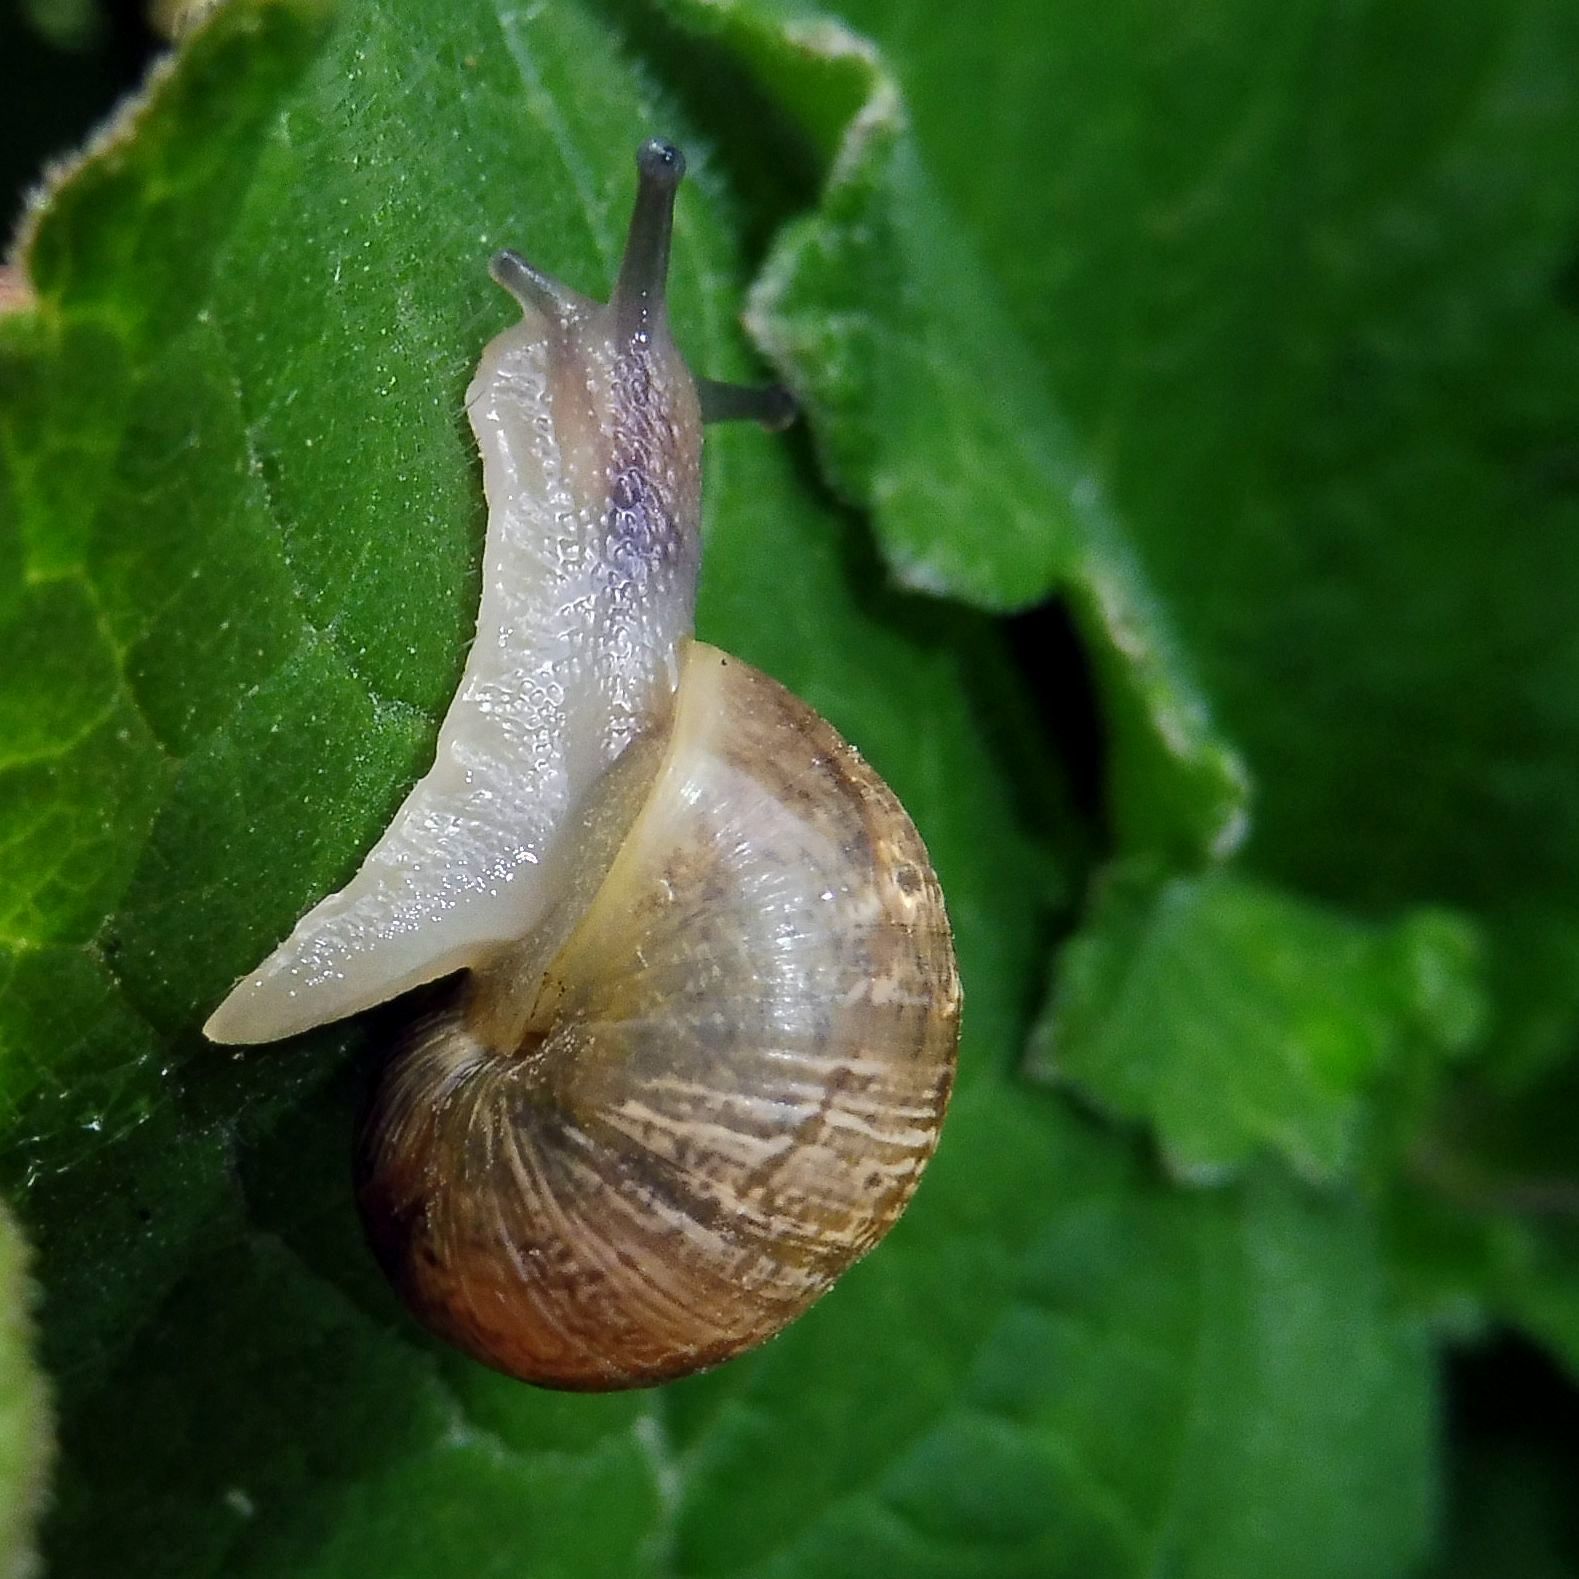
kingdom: Animalia
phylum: Mollusca
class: Gastropoda
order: Stylommatophora
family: Helicidae
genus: Cornu
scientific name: Cornu aspersum
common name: Brown garden snail
